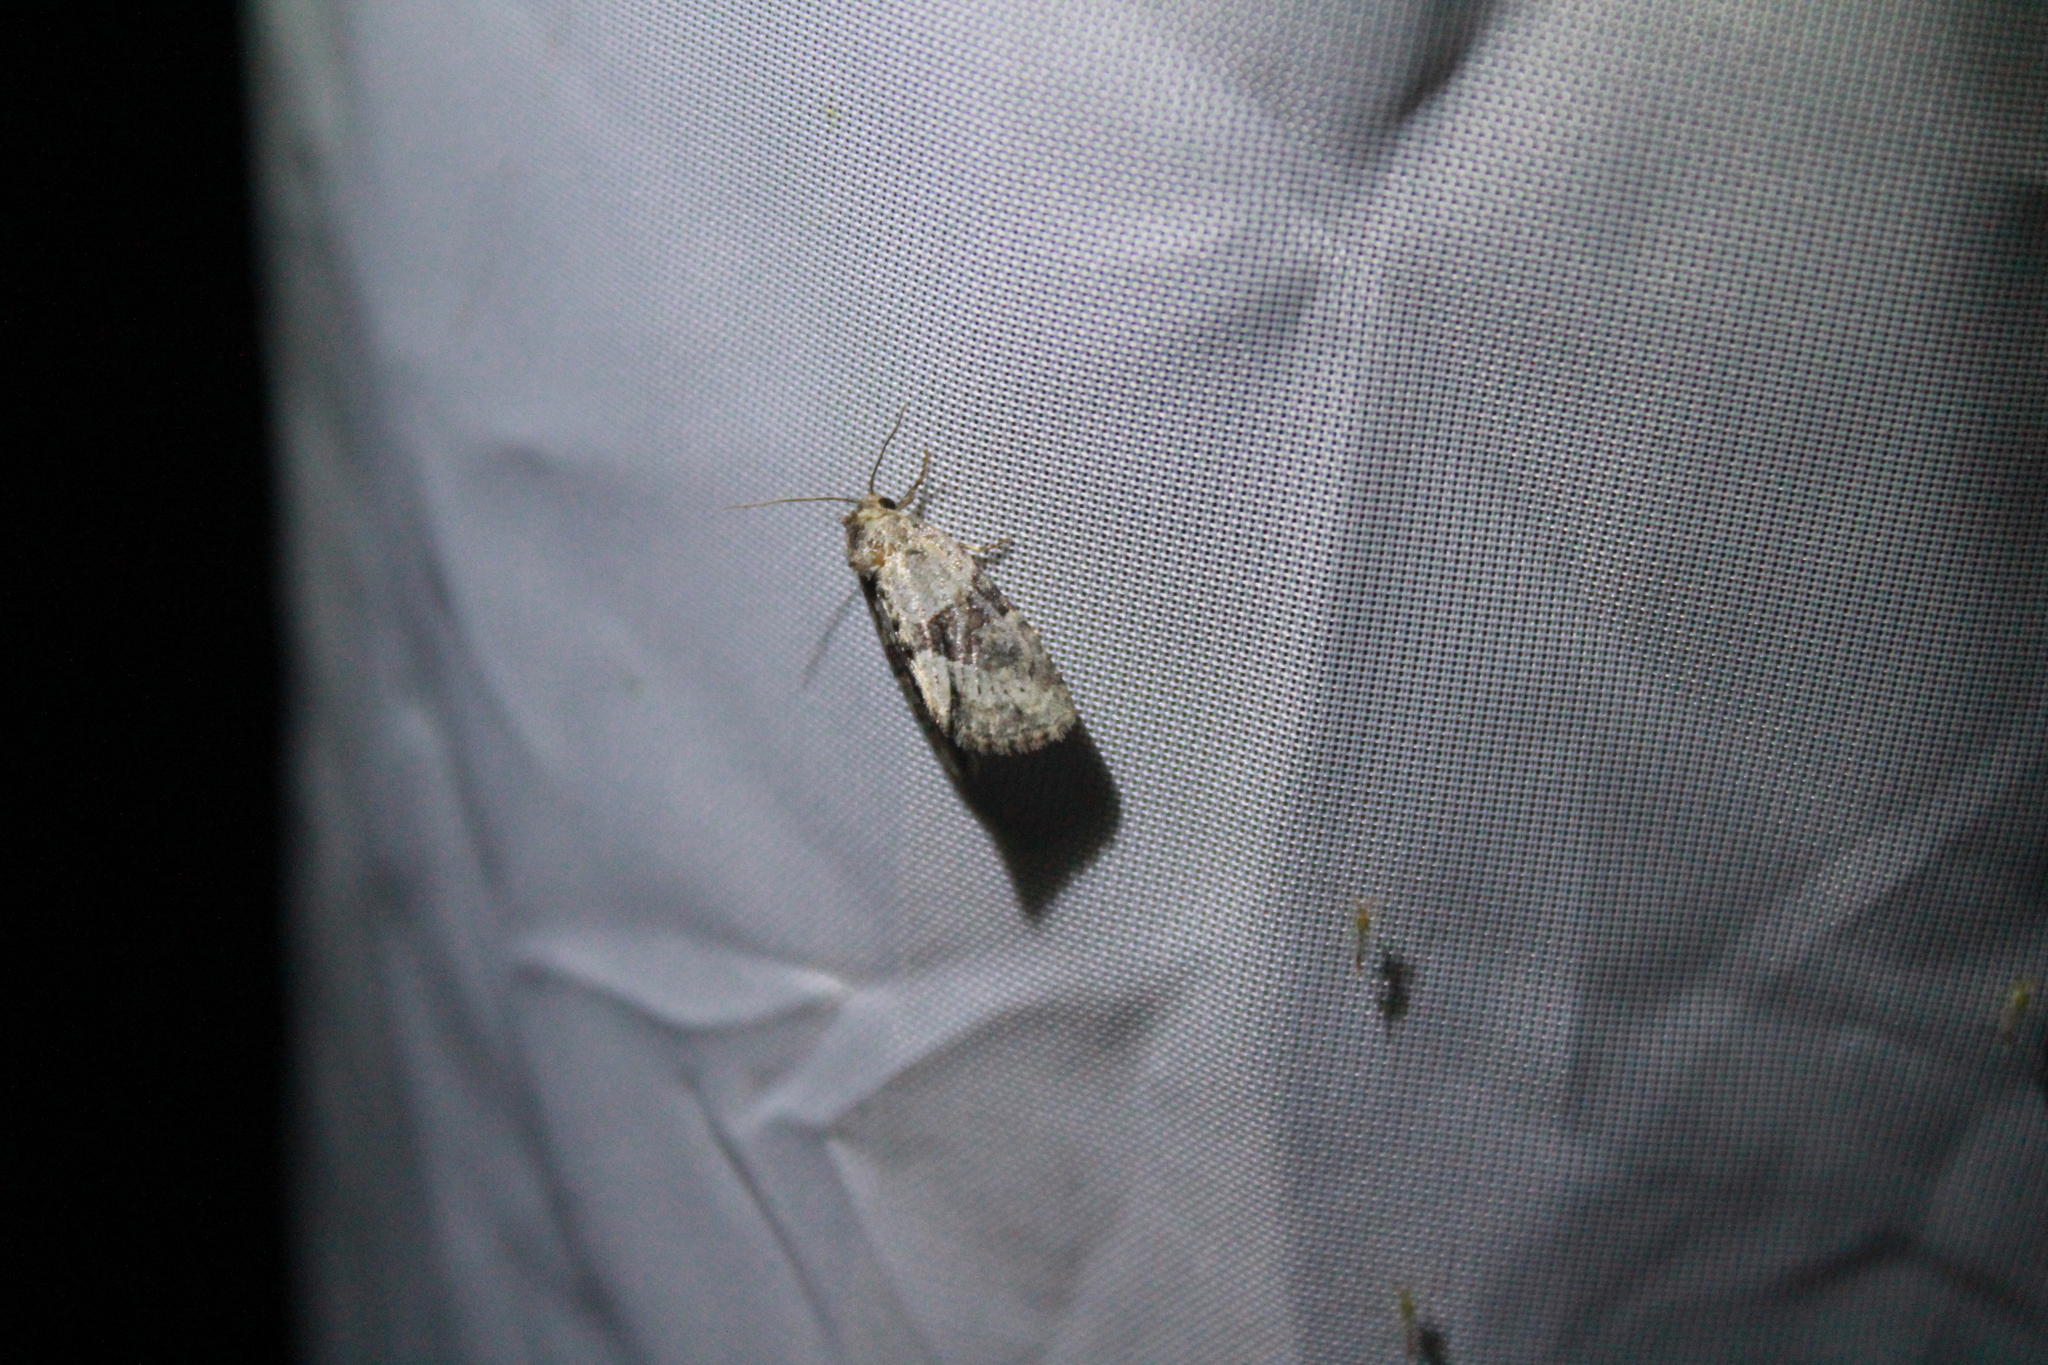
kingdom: Animalia
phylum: Arthropoda
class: Insecta
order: Lepidoptera
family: Noctuidae
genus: Neoligia
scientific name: Neoligia exhausta
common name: Exhausted brocade
